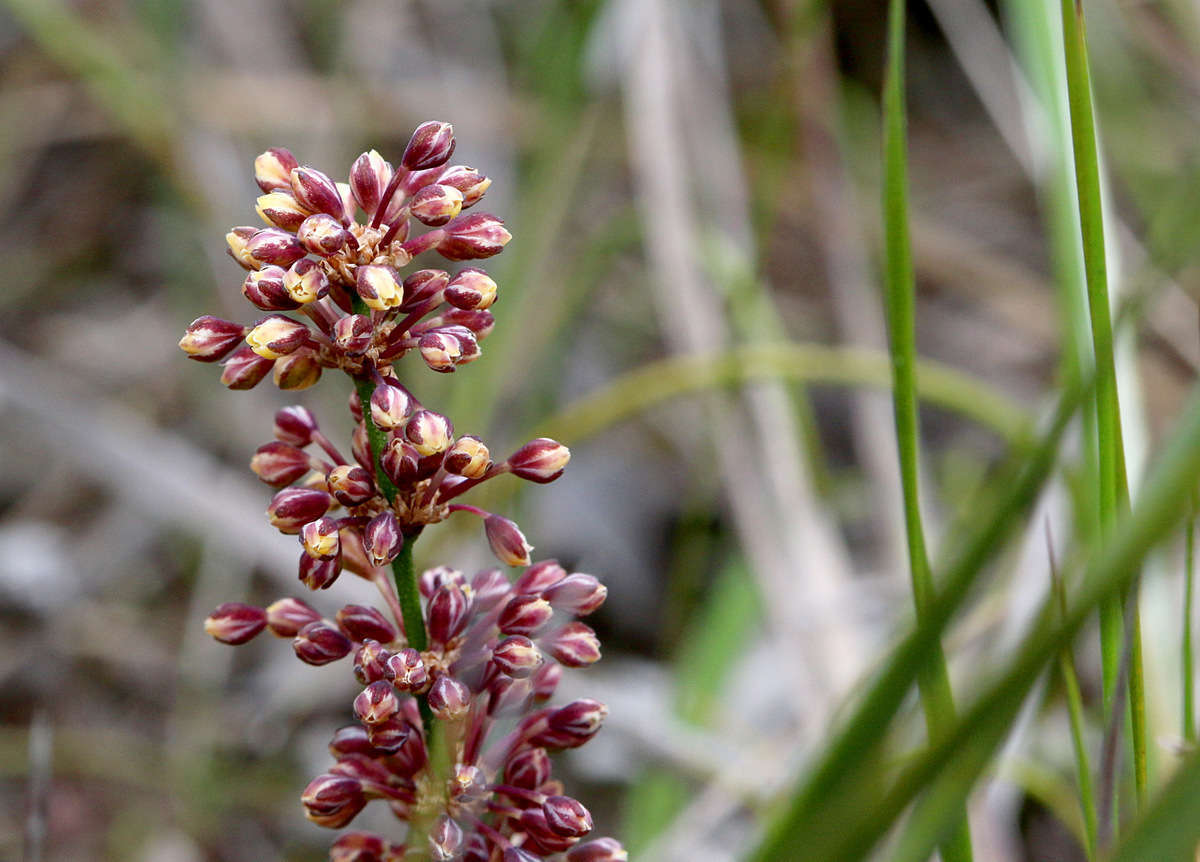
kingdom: Plantae
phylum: Tracheophyta
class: Liliopsida
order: Asparagales
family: Asparagaceae
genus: Lomandra
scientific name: Lomandra multiflora
